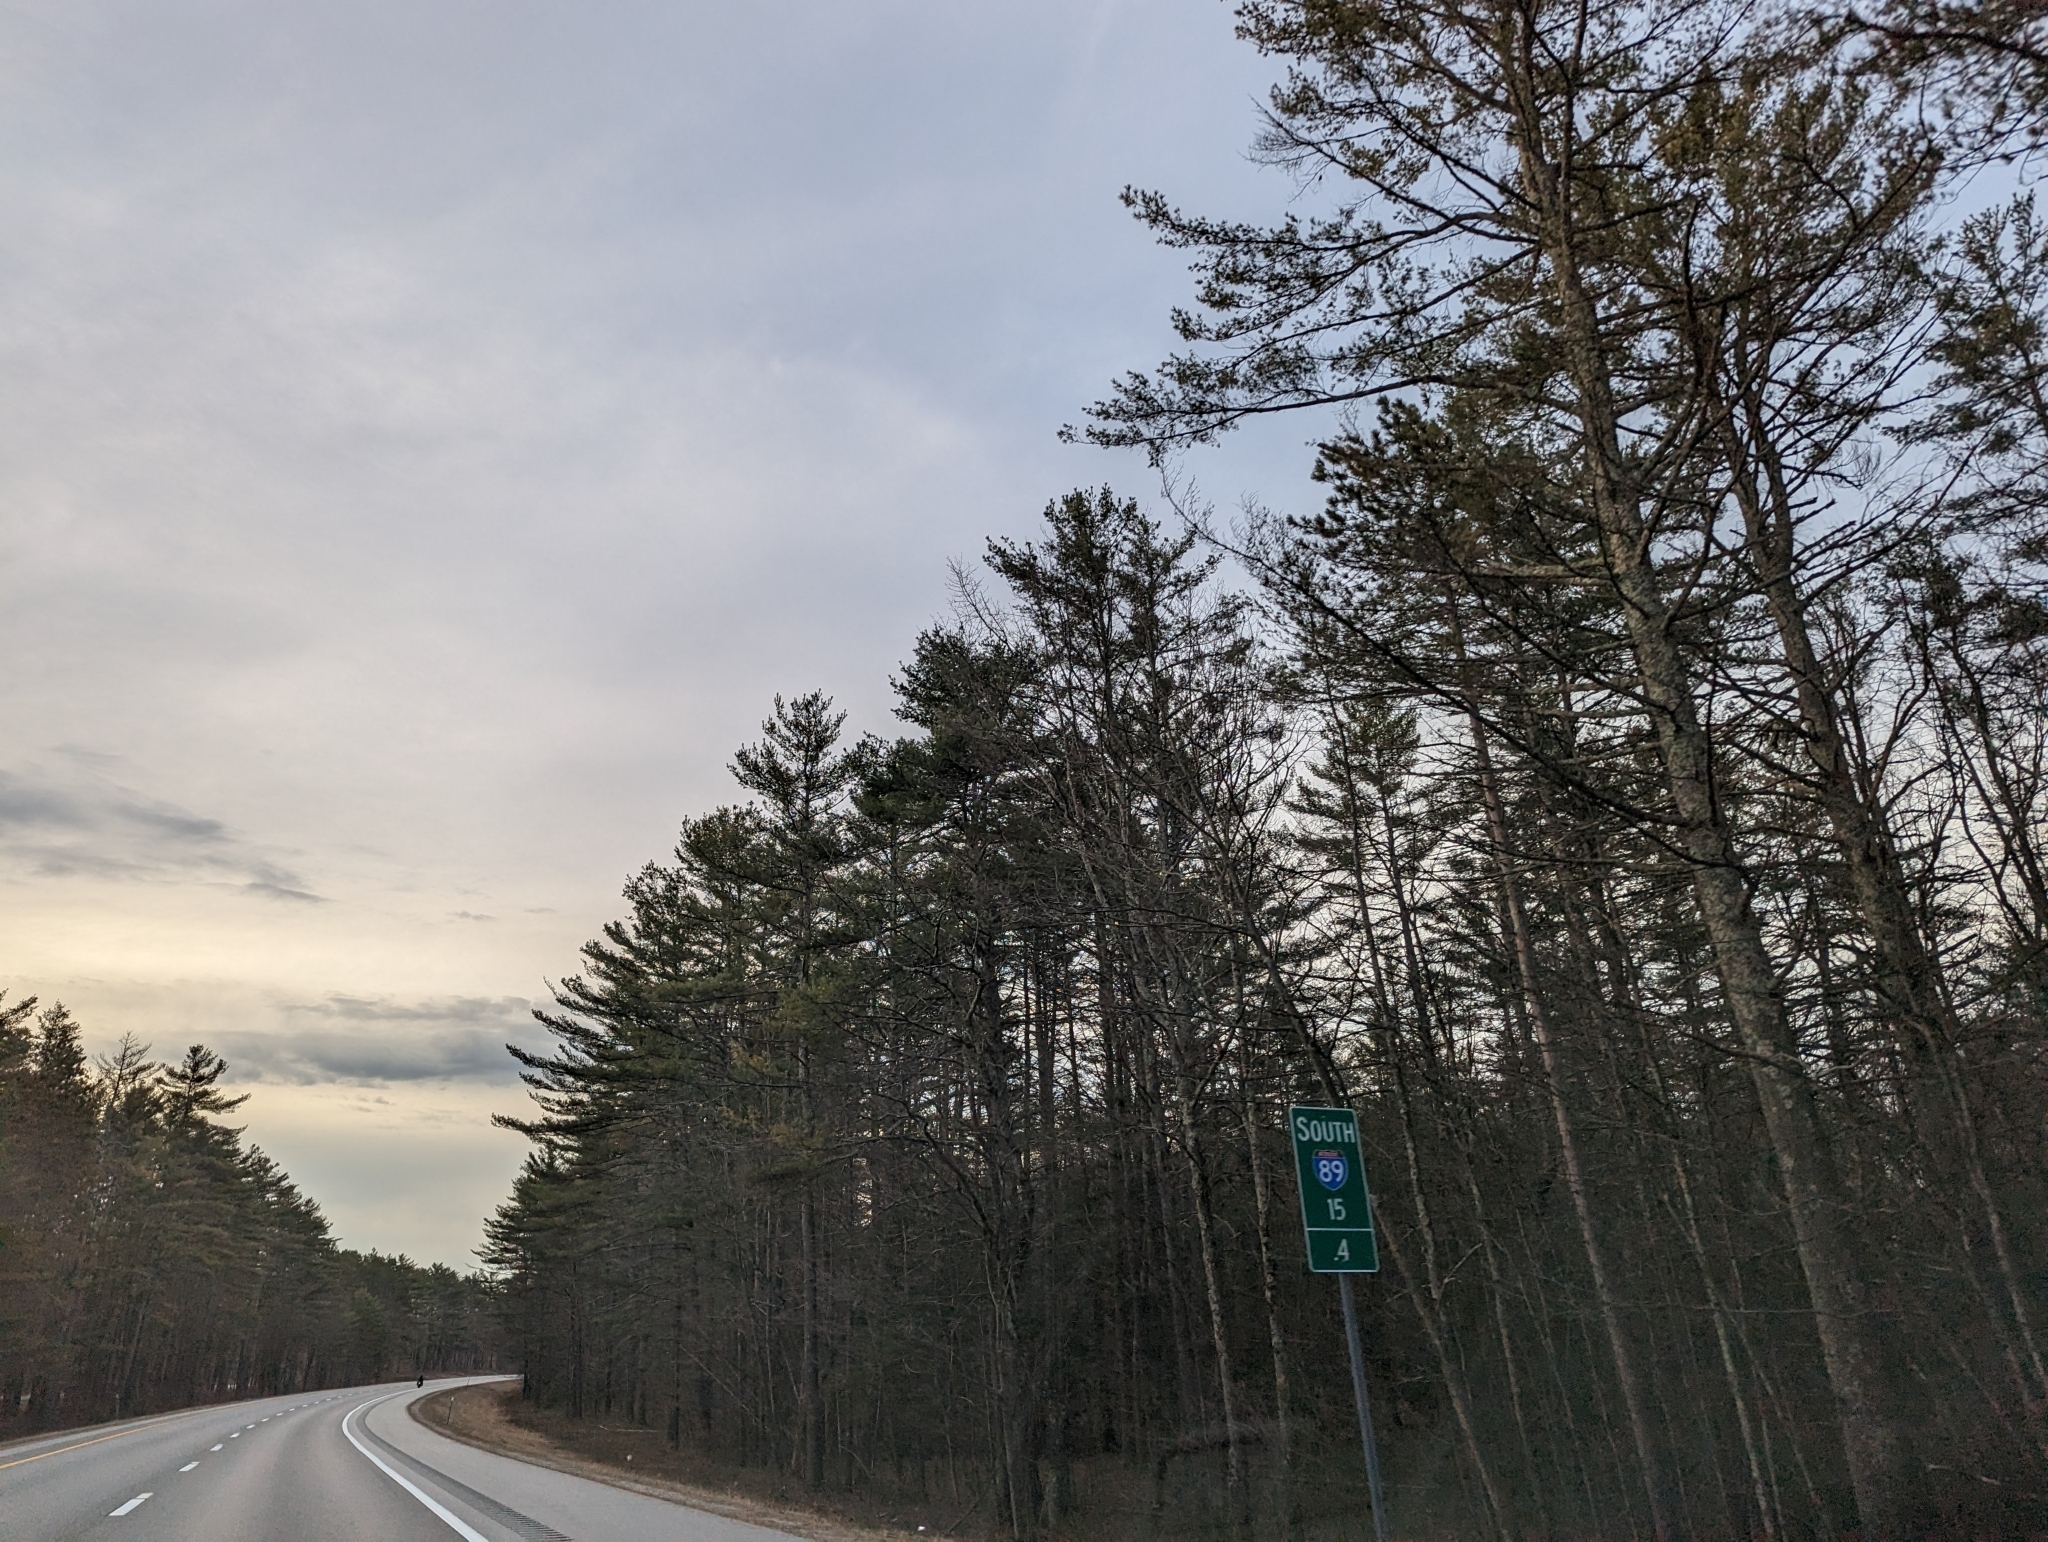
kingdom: Plantae
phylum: Tracheophyta
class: Pinopsida
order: Pinales
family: Pinaceae
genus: Pinus
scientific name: Pinus strobus
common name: Weymouth pine
